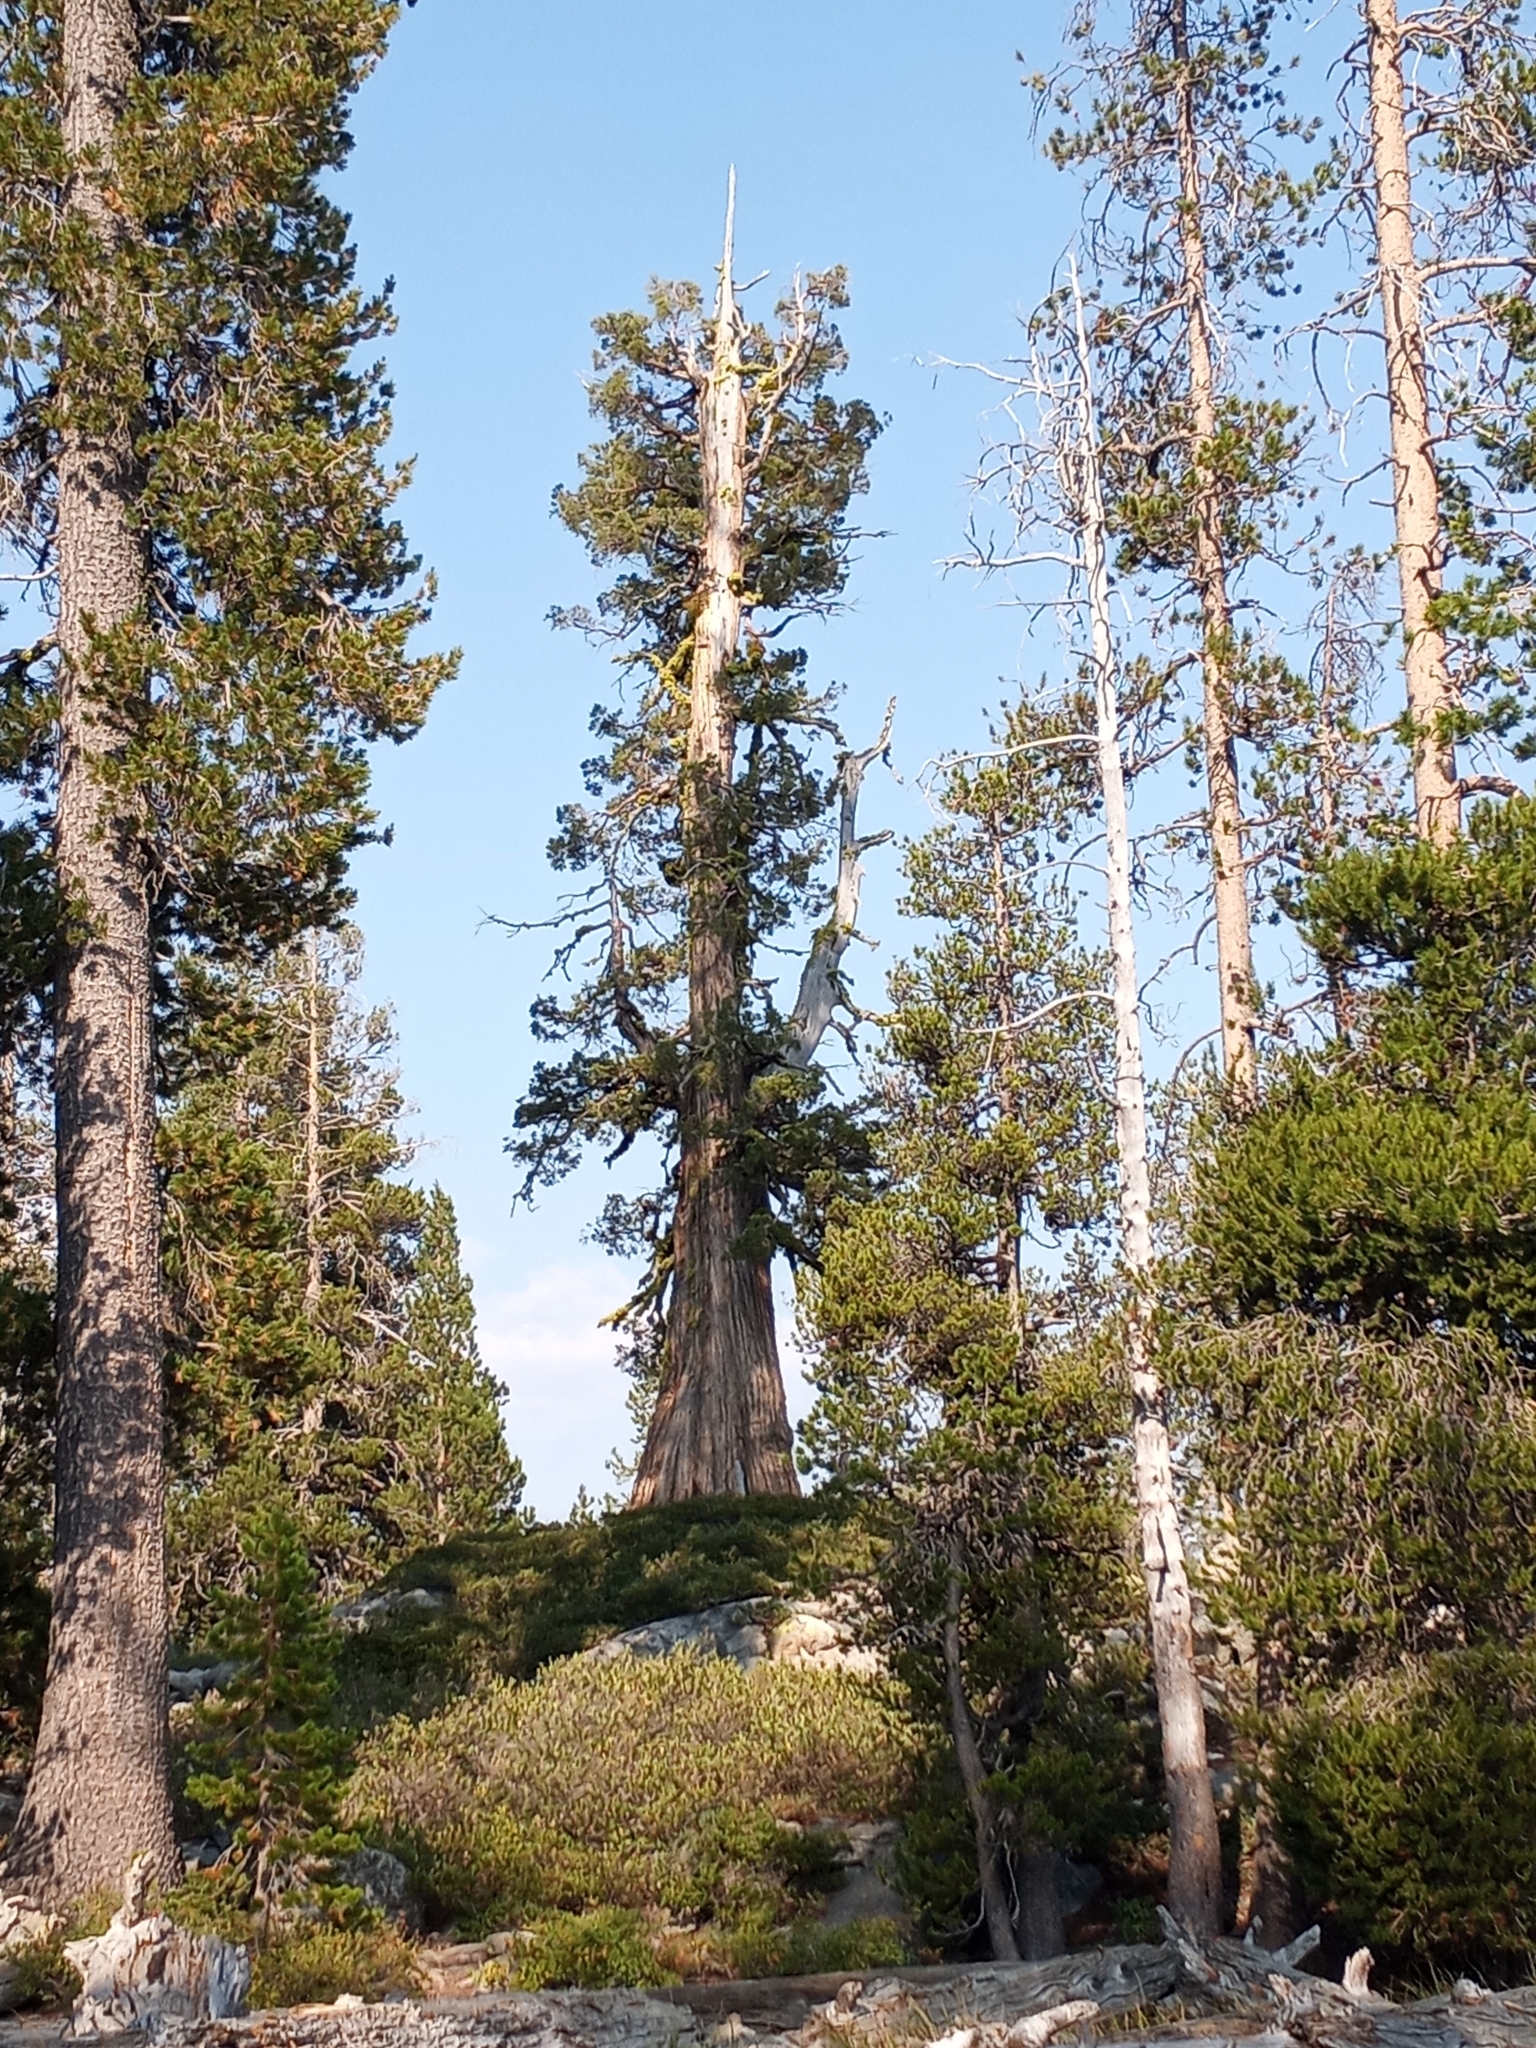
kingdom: Plantae
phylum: Tracheophyta
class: Pinopsida
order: Pinales
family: Cupressaceae
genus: Juniperus
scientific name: Juniperus occidentalis
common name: Western juniper
